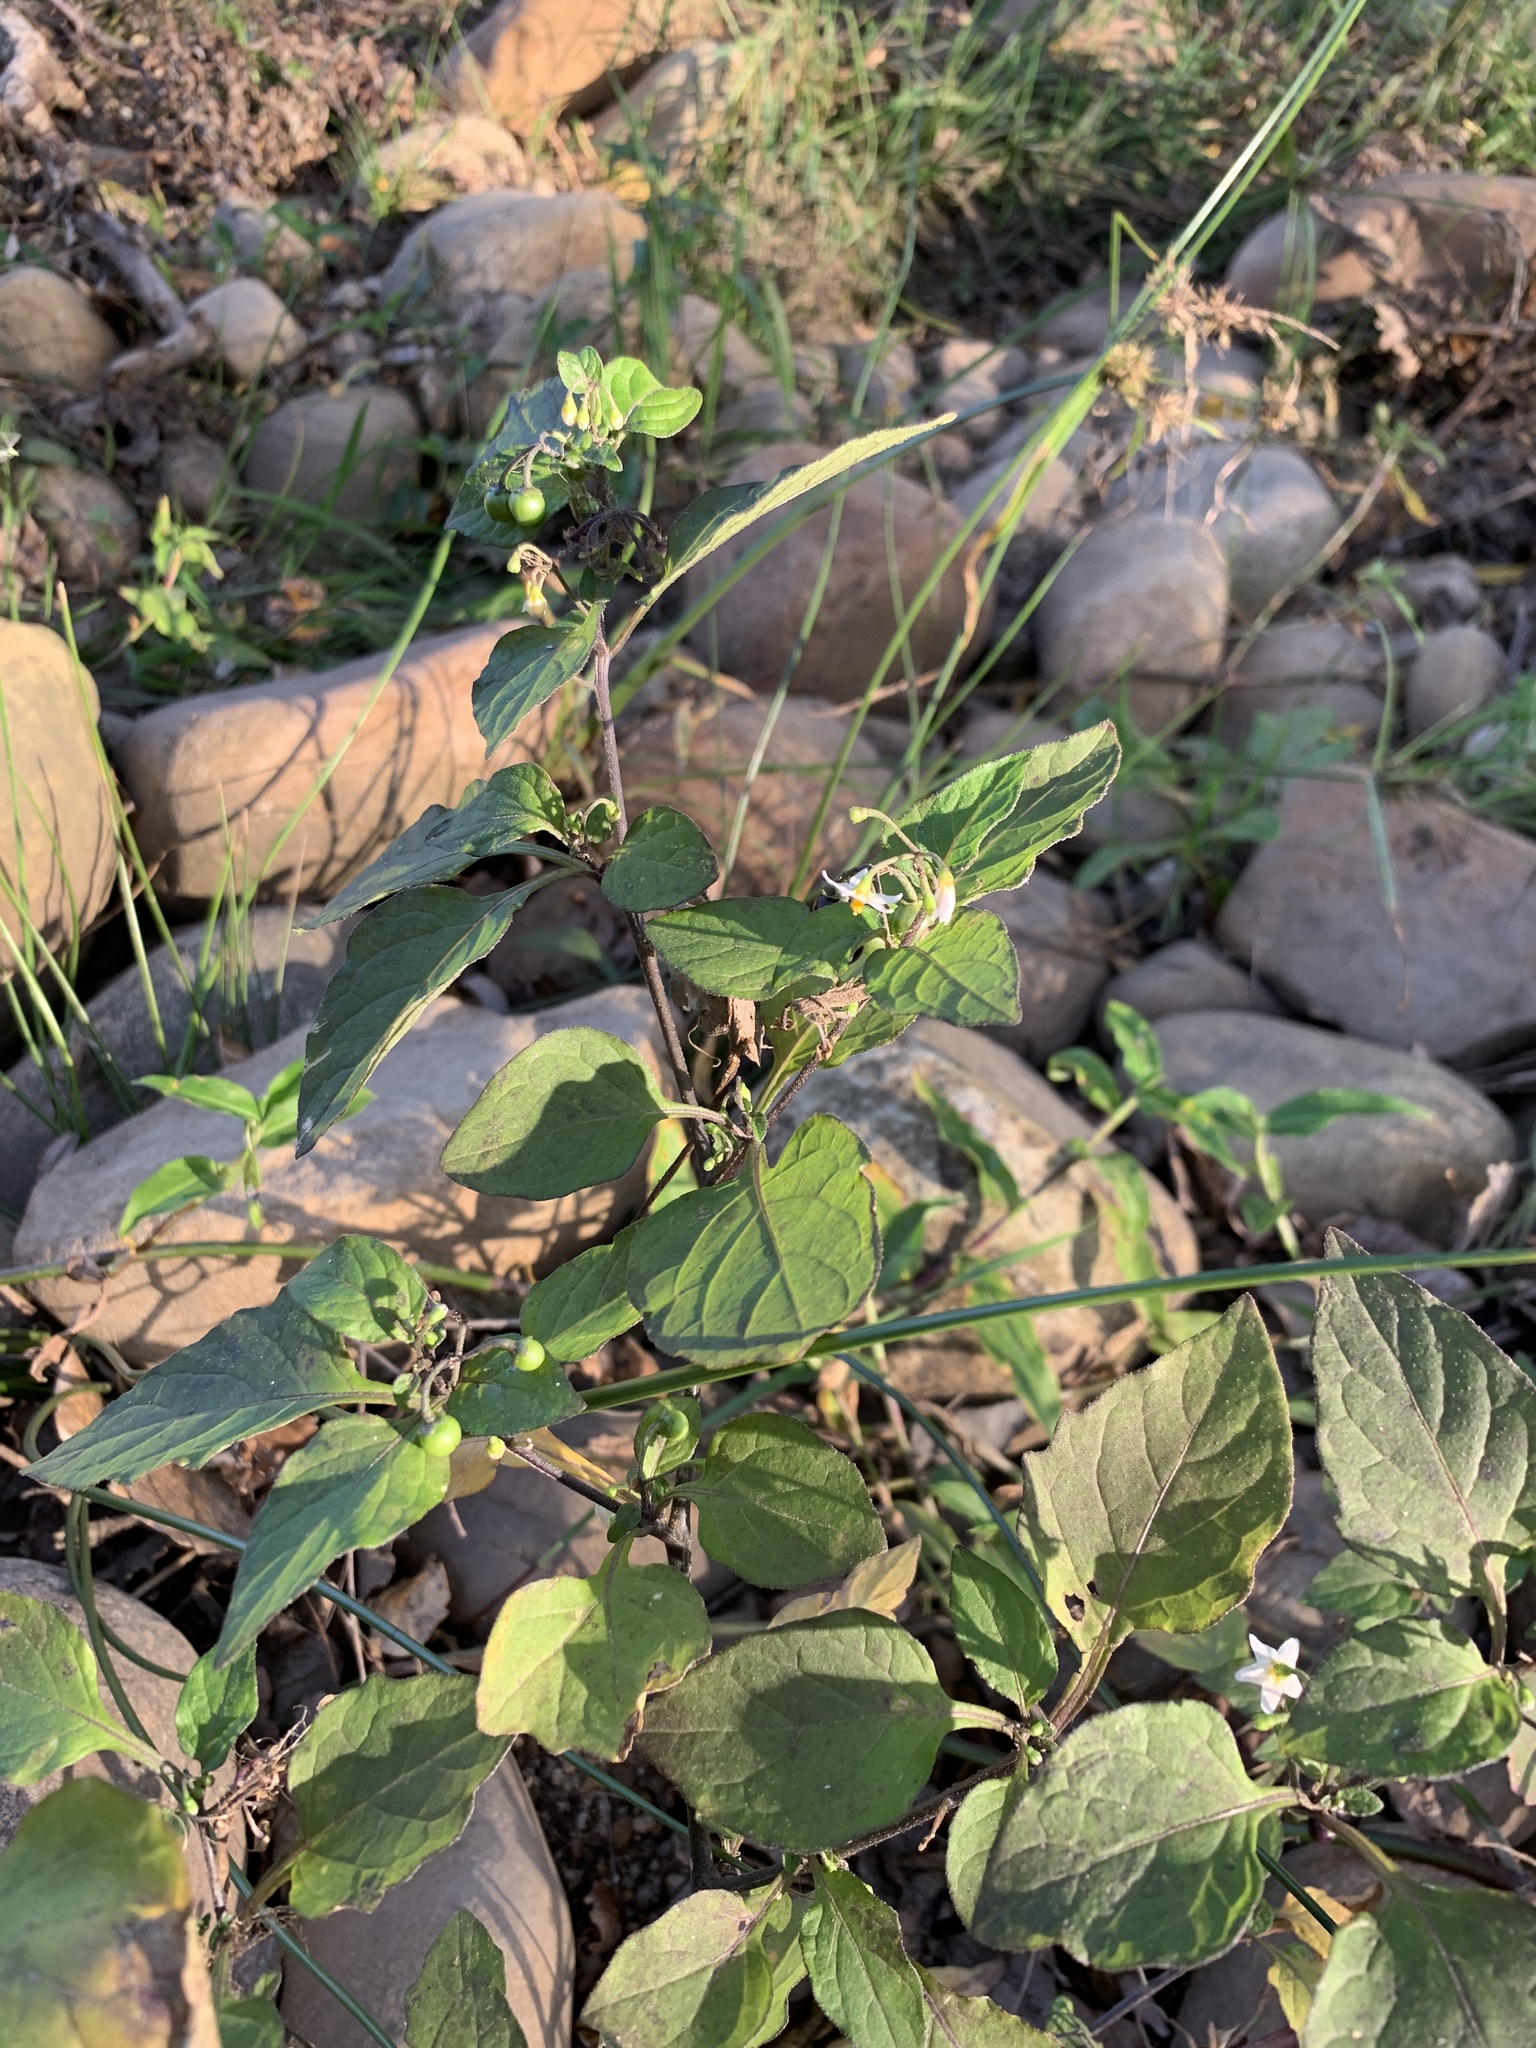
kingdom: Plantae
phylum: Tracheophyta
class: Magnoliopsida
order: Solanales
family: Solanaceae
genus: Solanum
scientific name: Solanum nigrum
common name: Black nightshade
